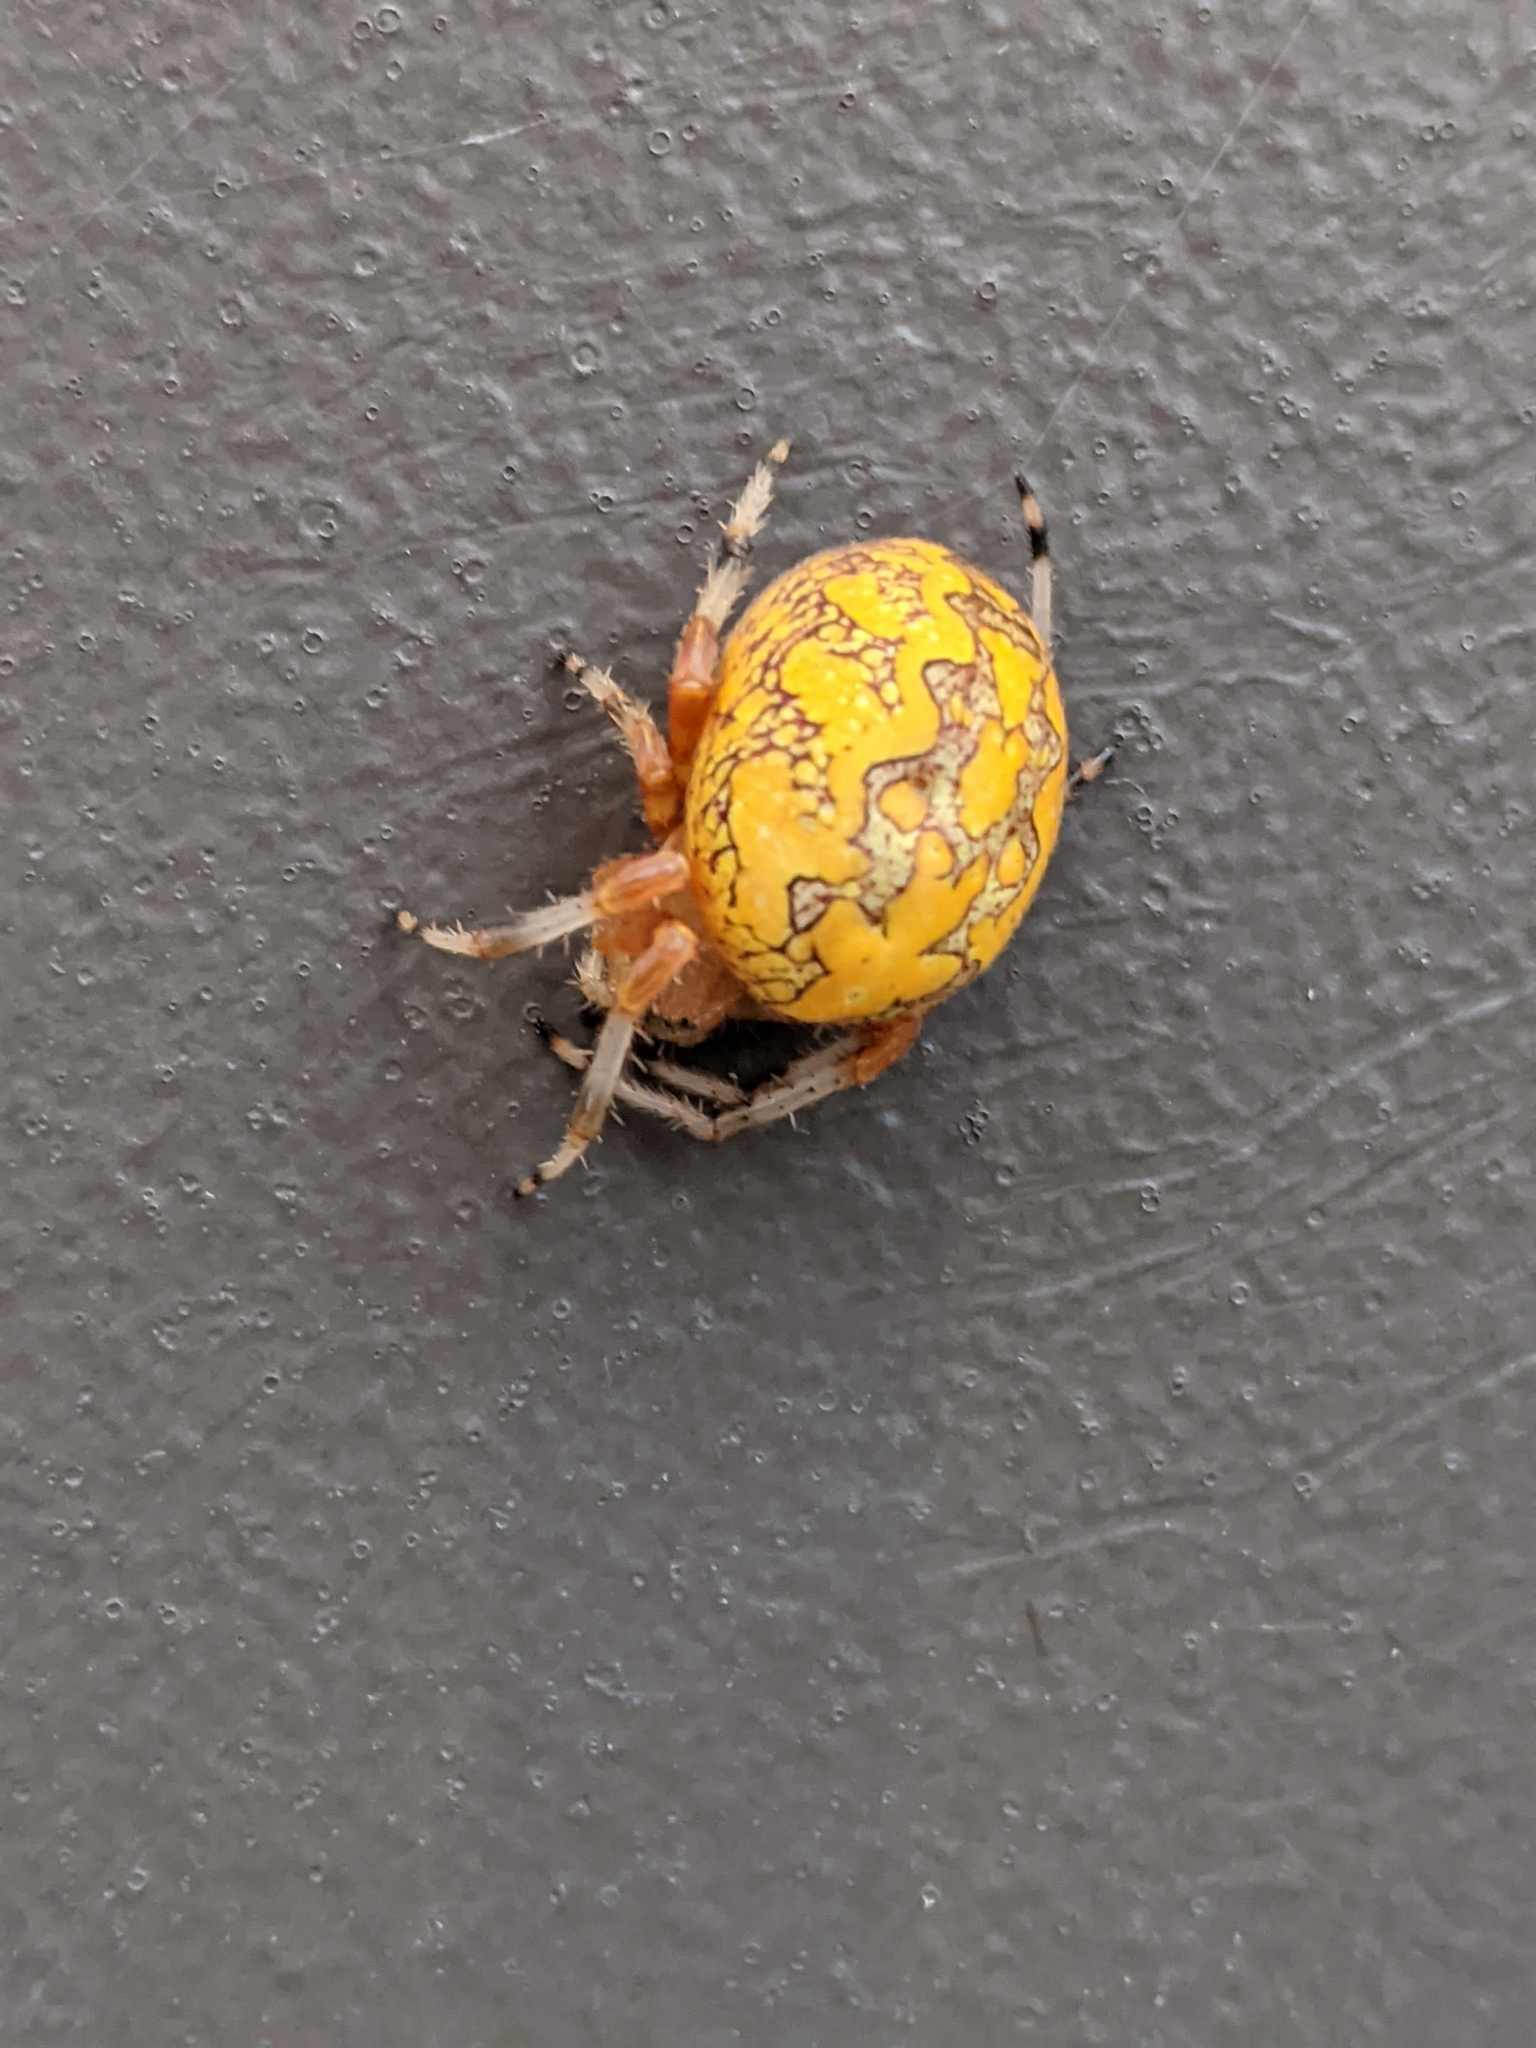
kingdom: Animalia
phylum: Arthropoda
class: Arachnida
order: Araneae
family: Araneidae
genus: Araneus
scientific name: Araneus marmoreus
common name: Marbled orbweaver
